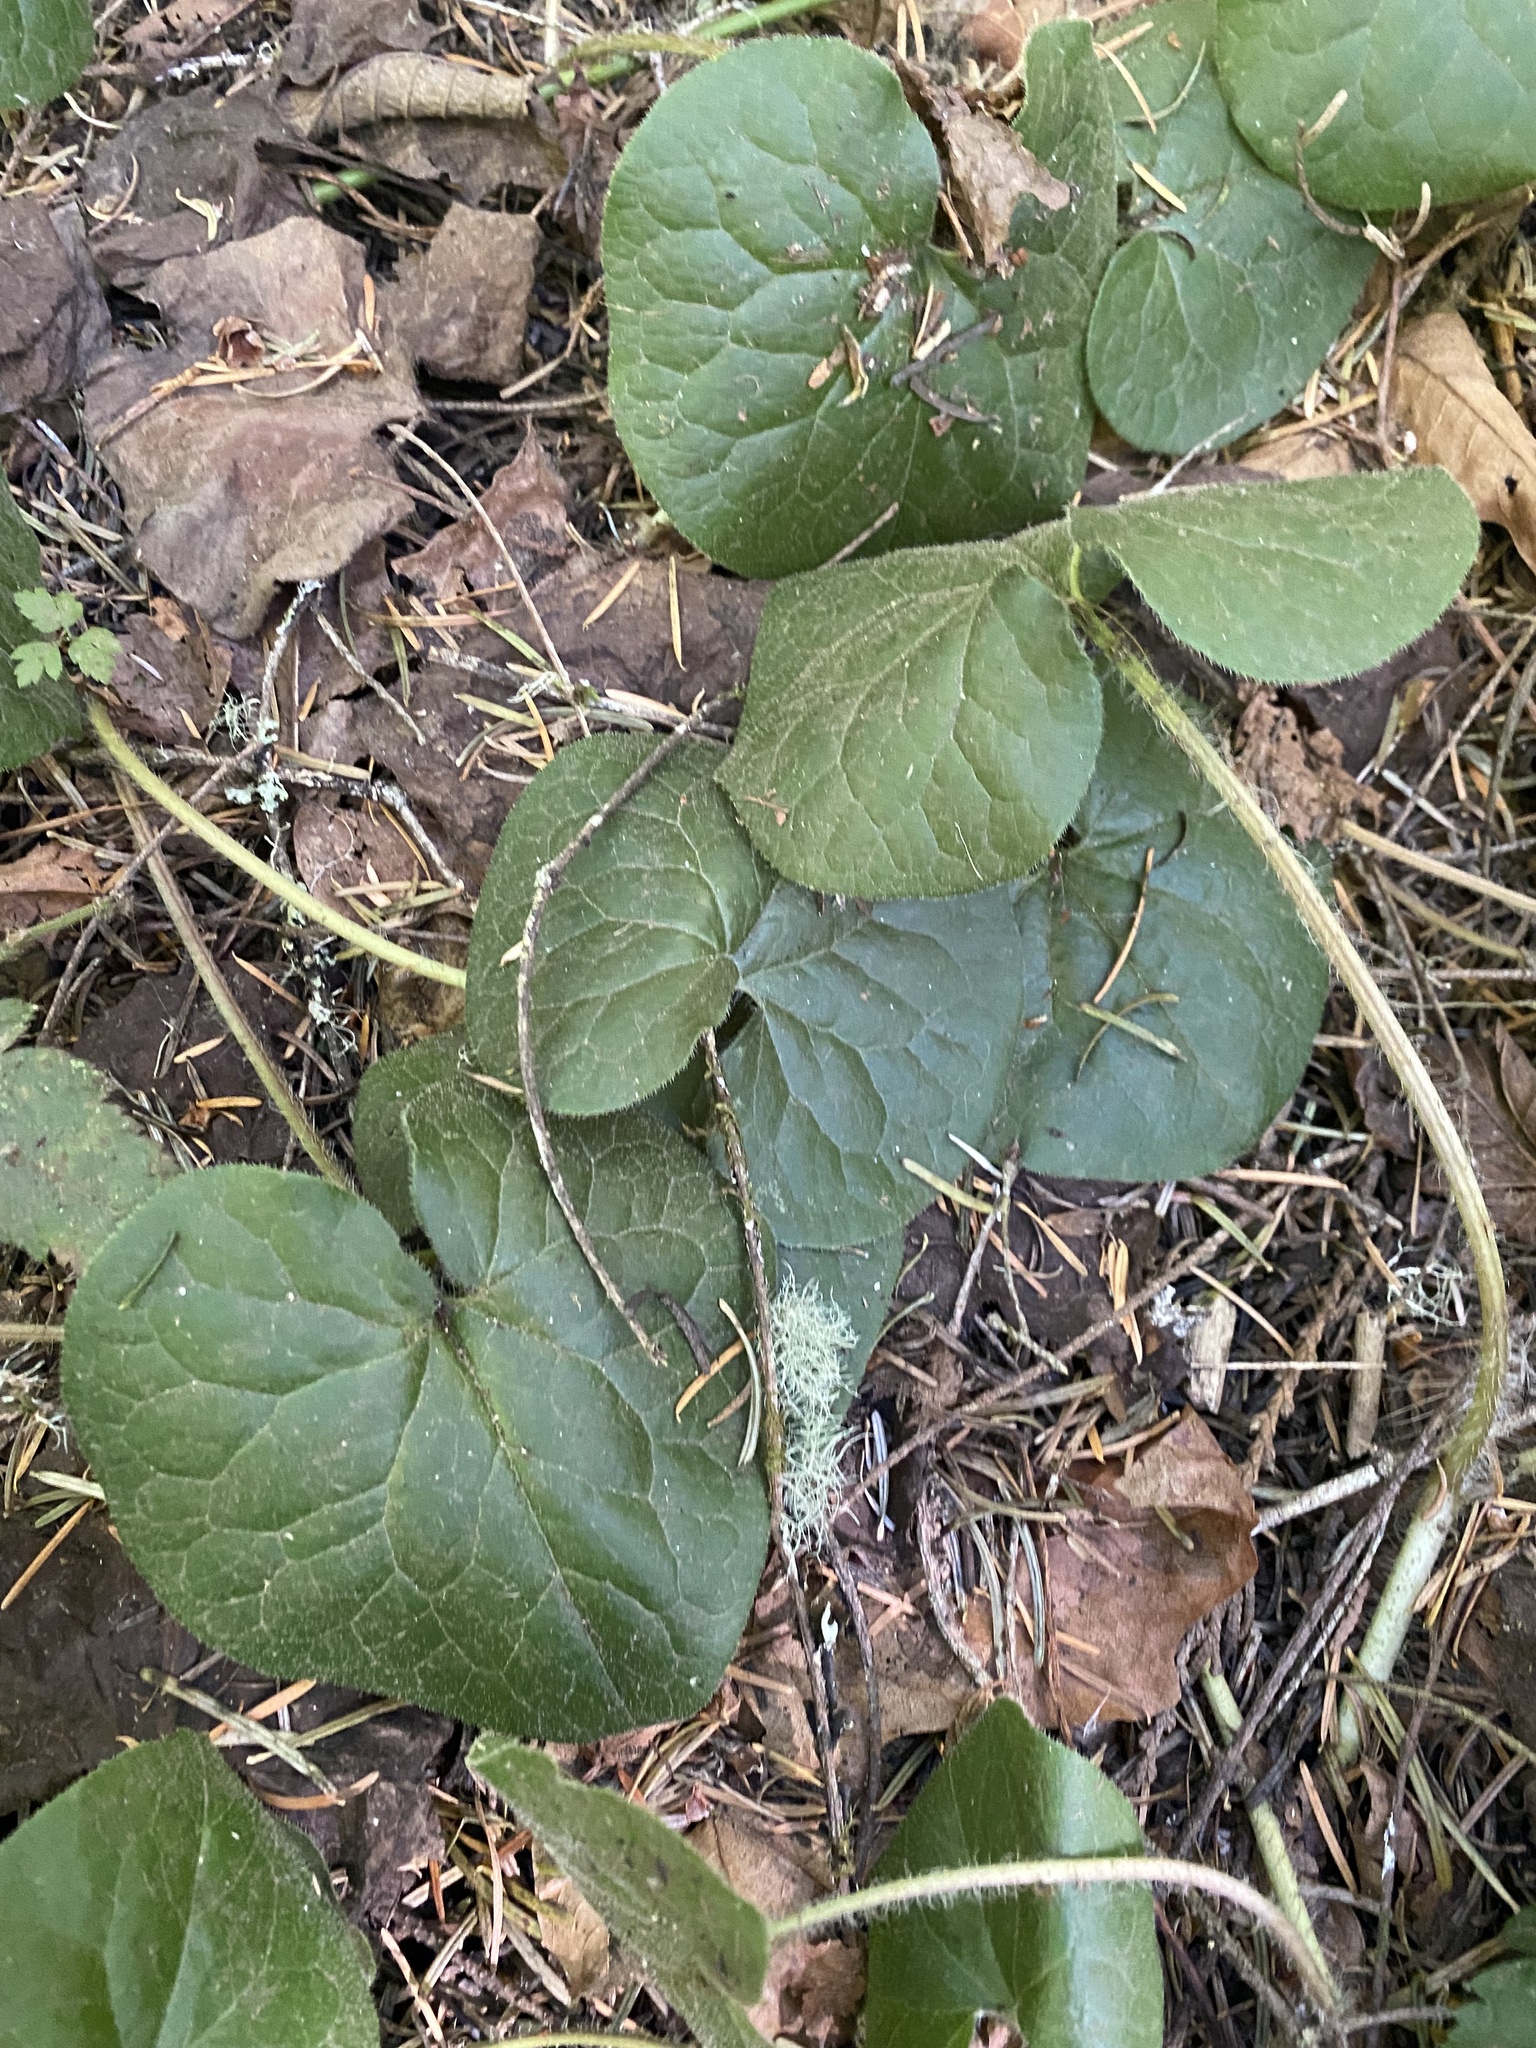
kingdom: Plantae
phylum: Tracheophyta
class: Magnoliopsida
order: Piperales
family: Aristolochiaceae
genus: Asarum
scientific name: Asarum caudatum
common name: Wild ginger
